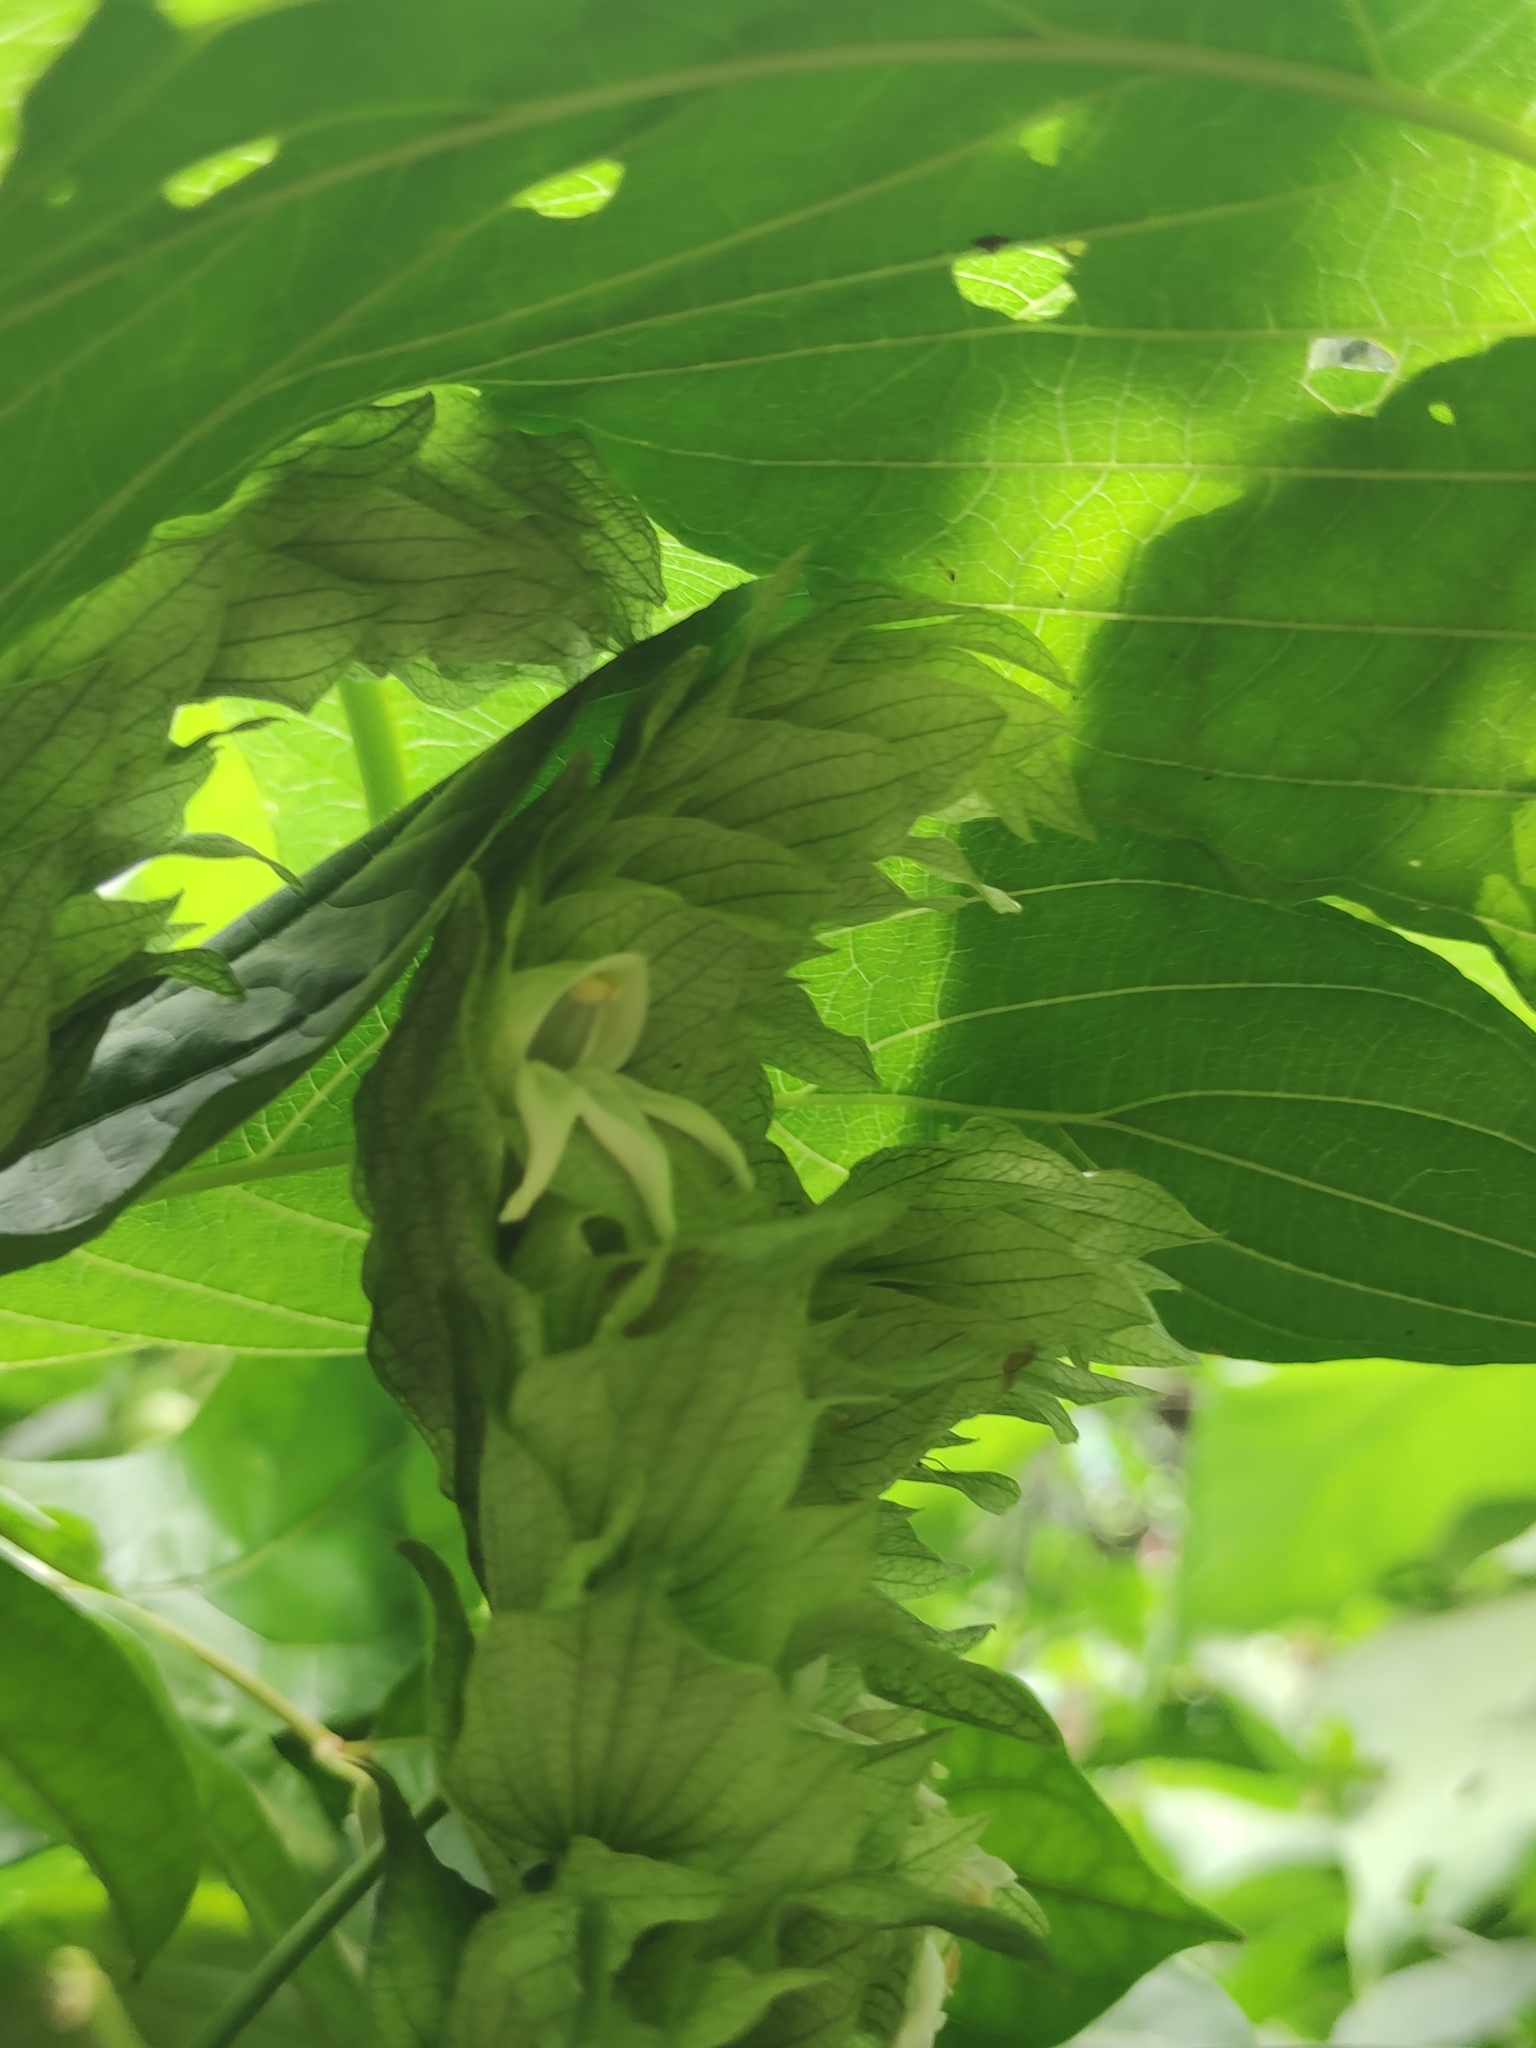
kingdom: Plantae
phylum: Tracheophyta
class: Magnoliopsida
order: Lamiales
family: Acanthaceae
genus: Justicia
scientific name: Justicia betonica
